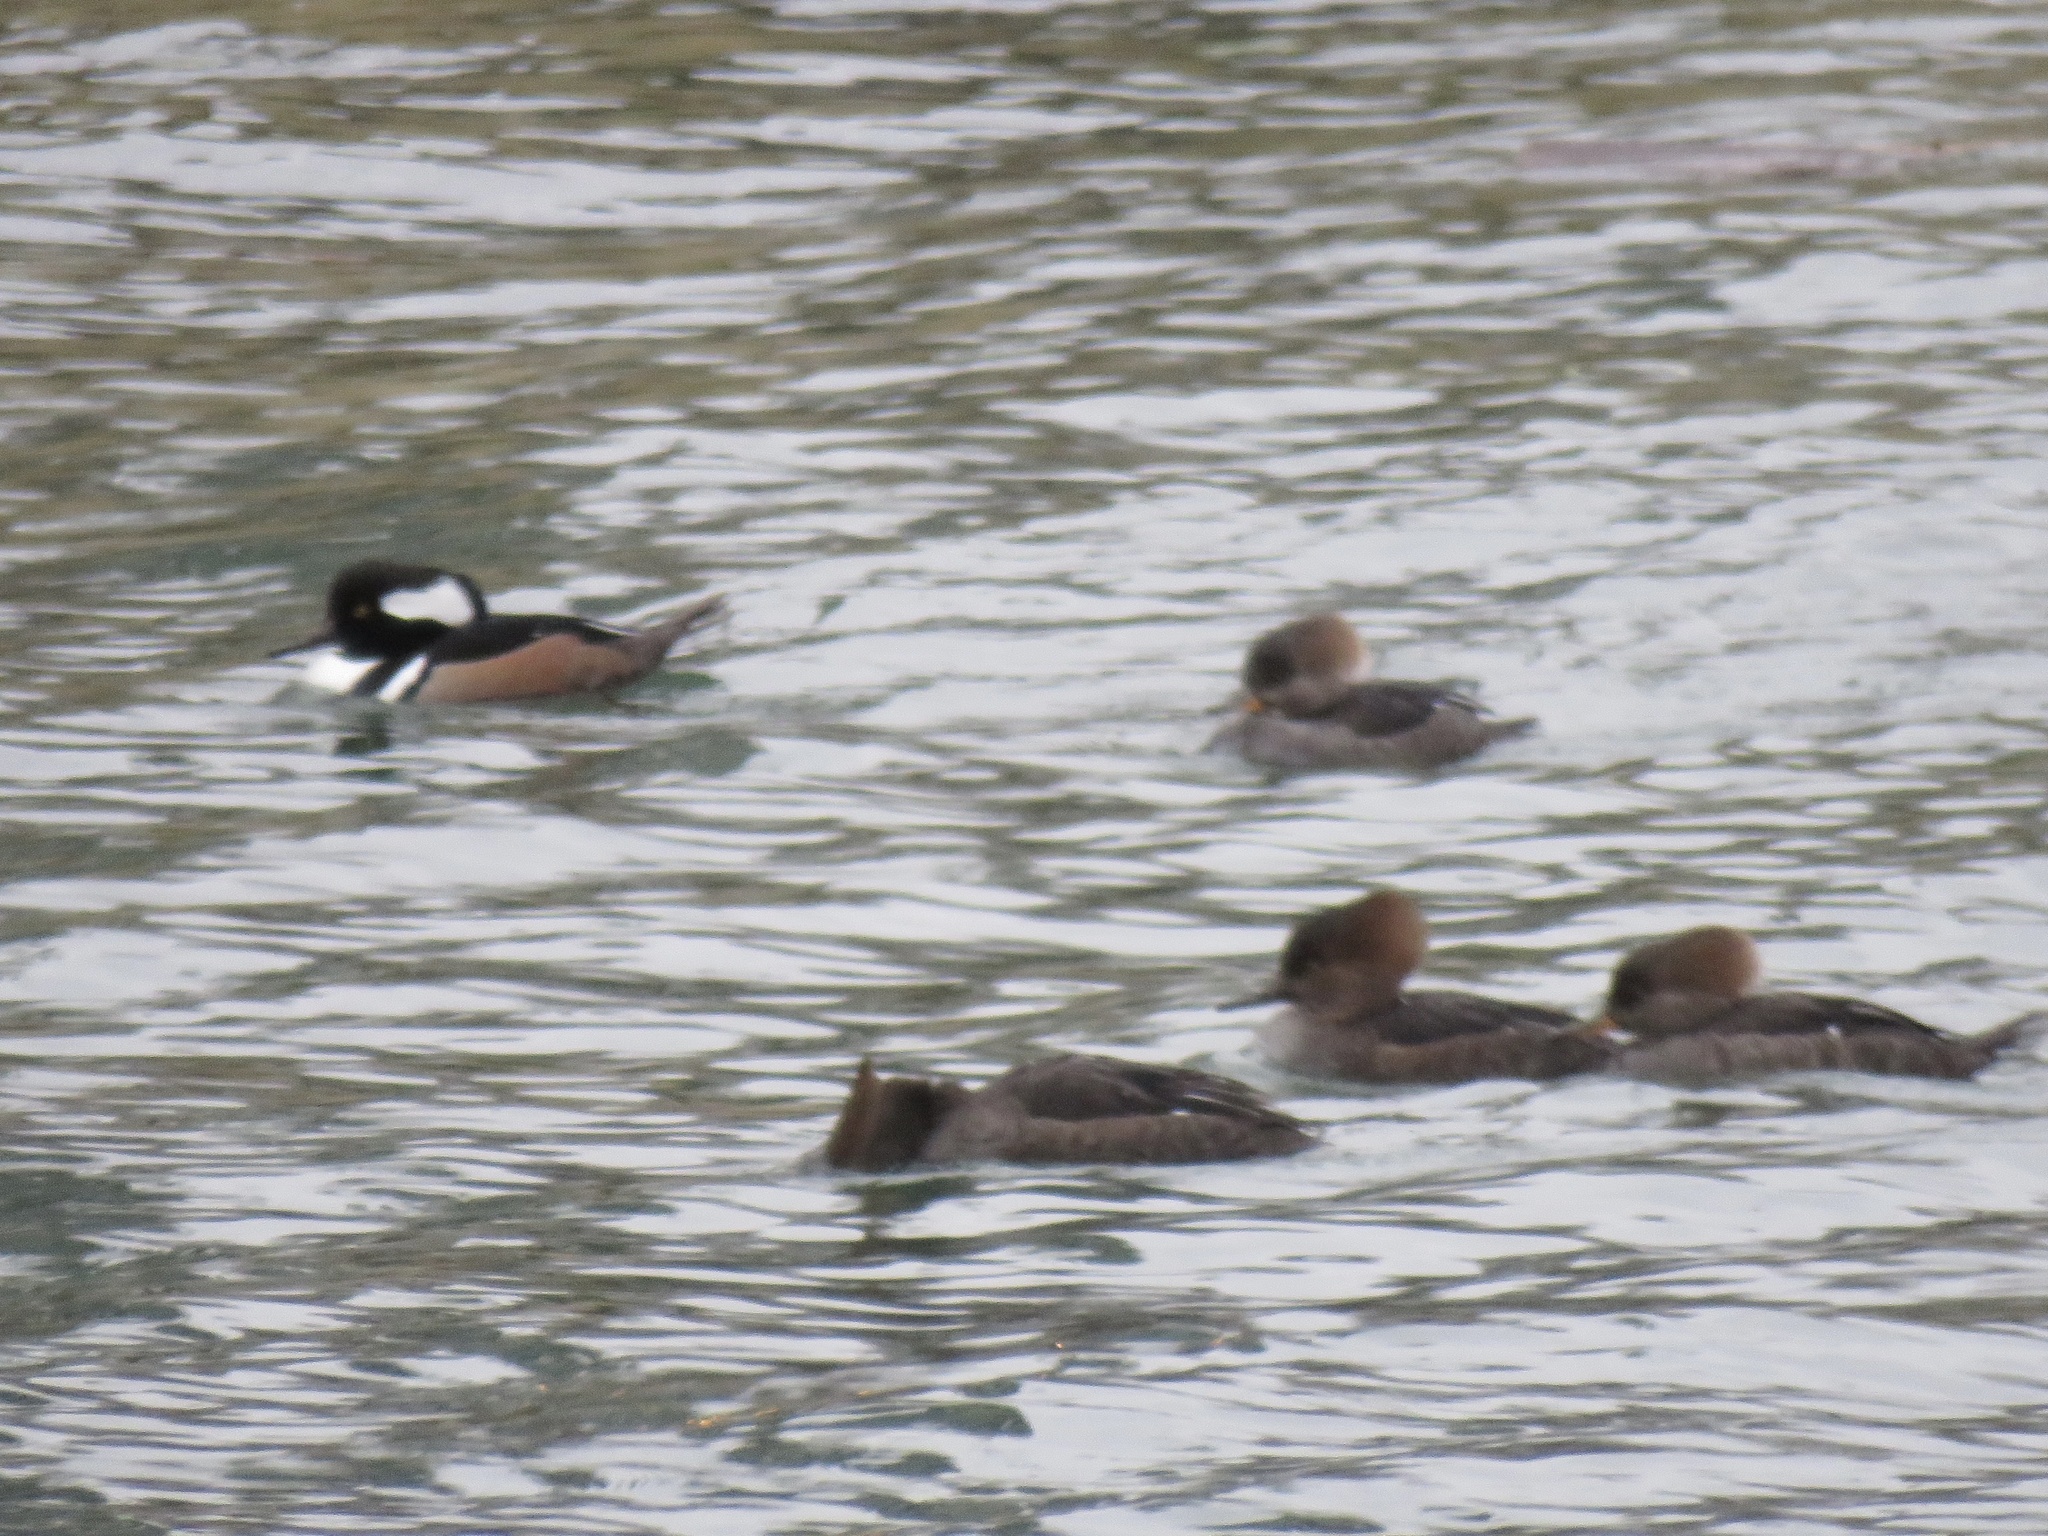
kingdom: Animalia
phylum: Chordata
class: Aves
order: Anseriformes
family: Anatidae
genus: Lophodytes
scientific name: Lophodytes cucullatus
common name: Hooded merganser
